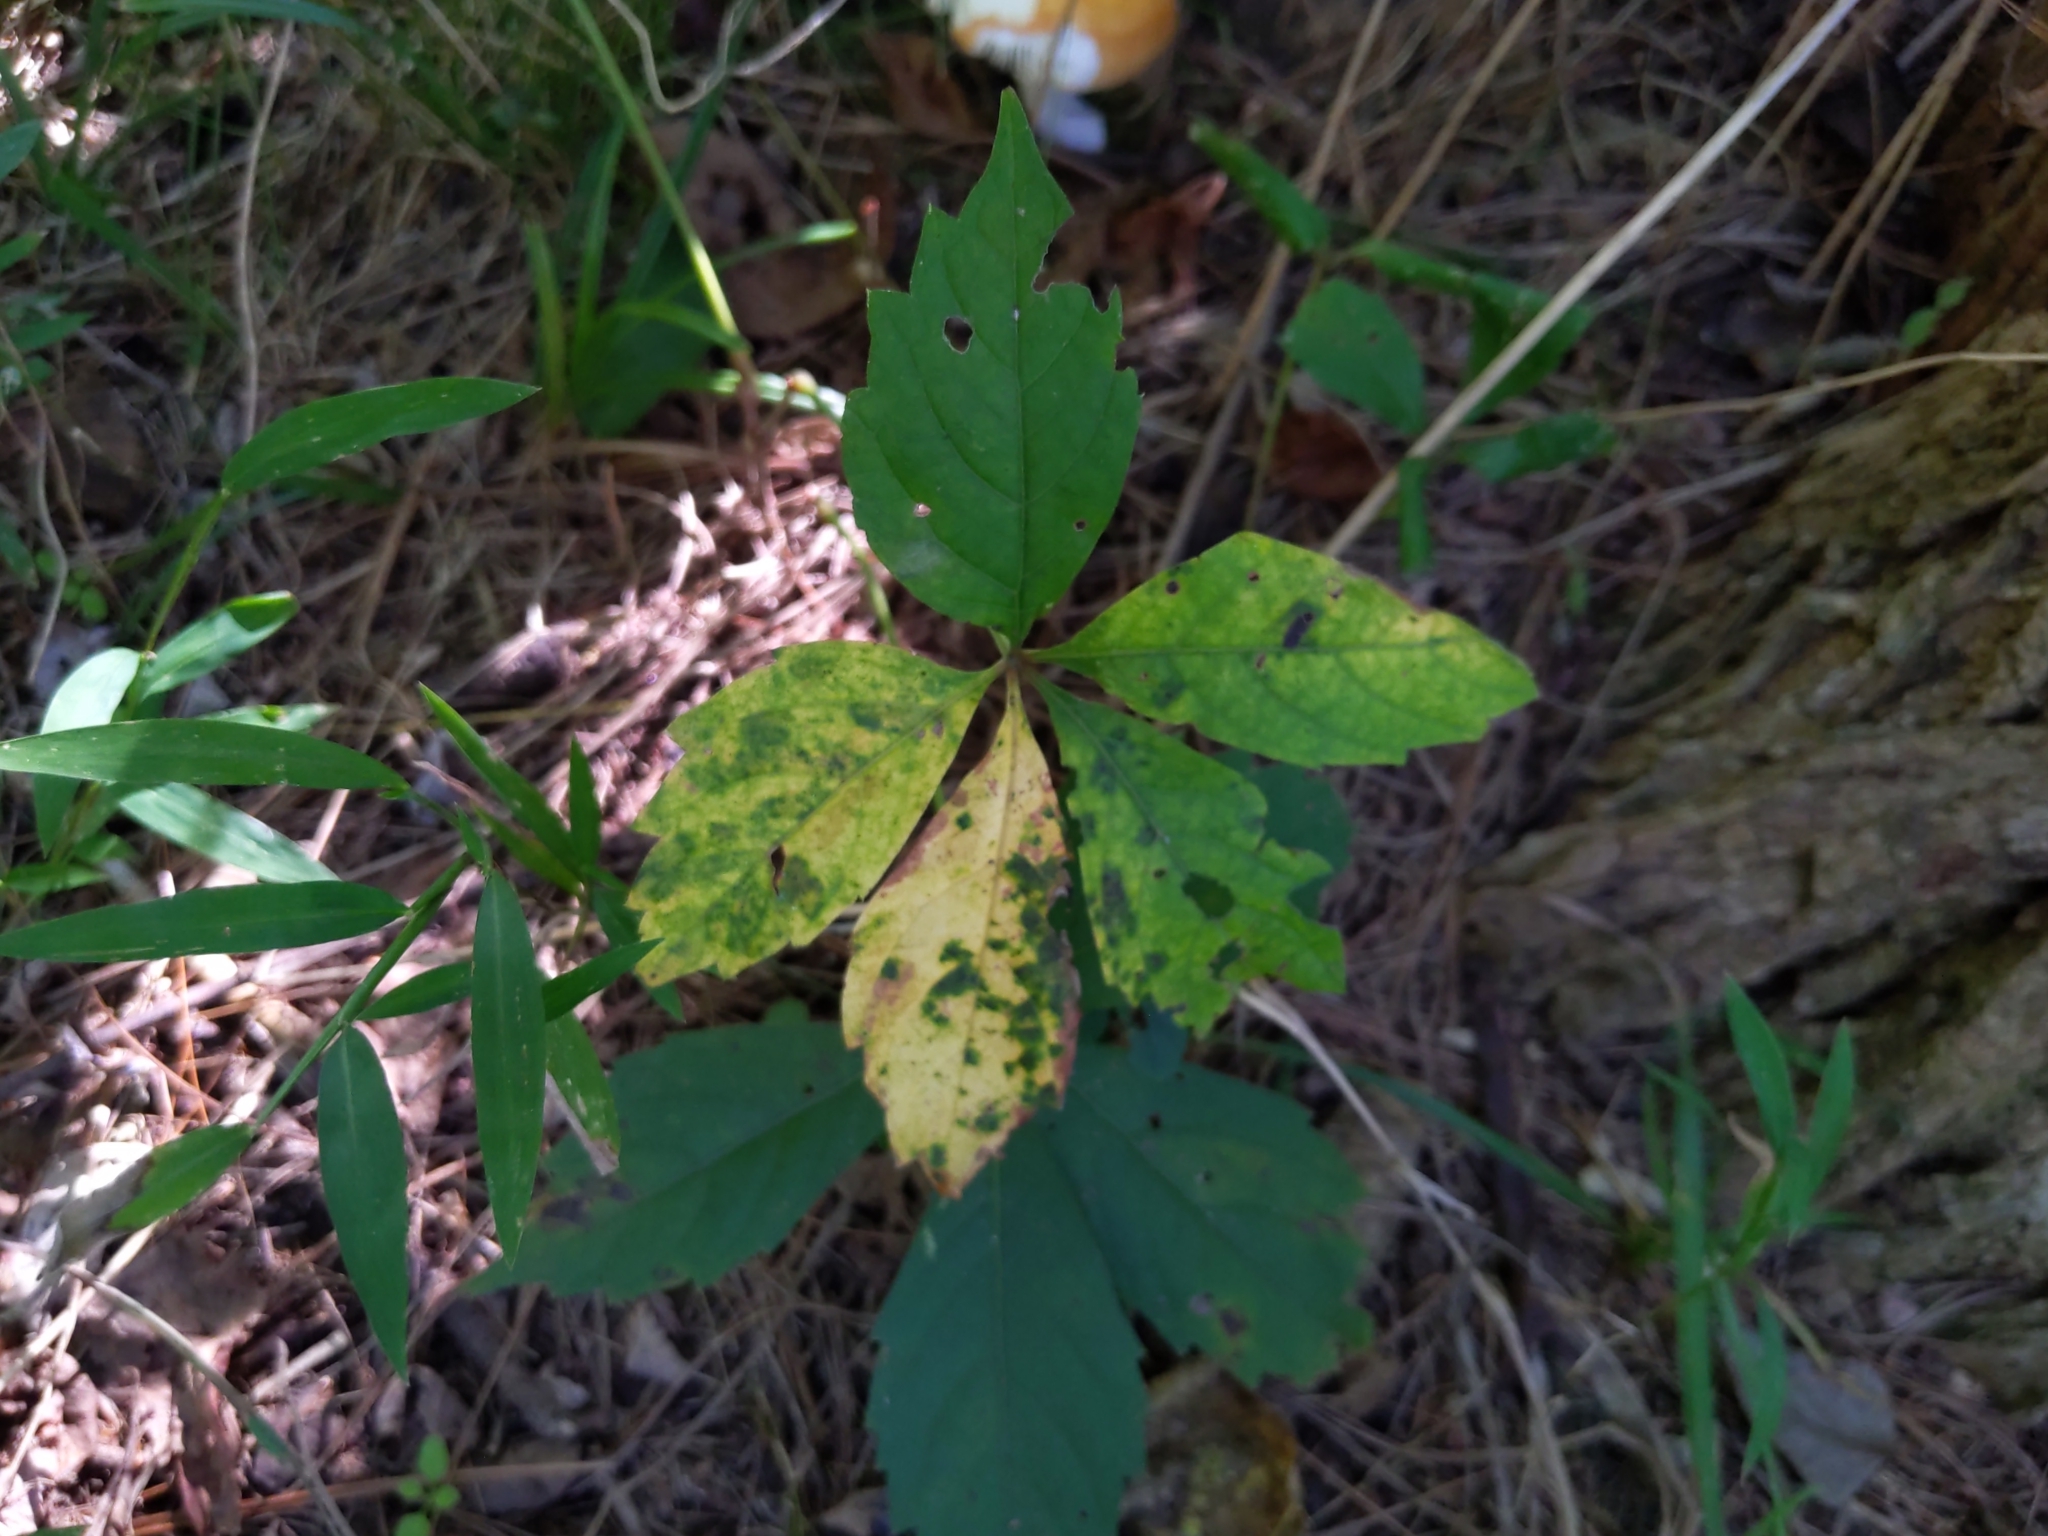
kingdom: Plantae
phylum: Tracheophyta
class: Magnoliopsida
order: Vitales
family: Vitaceae
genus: Parthenocissus
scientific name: Parthenocissus quinquefolia
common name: Virginia-creeper
